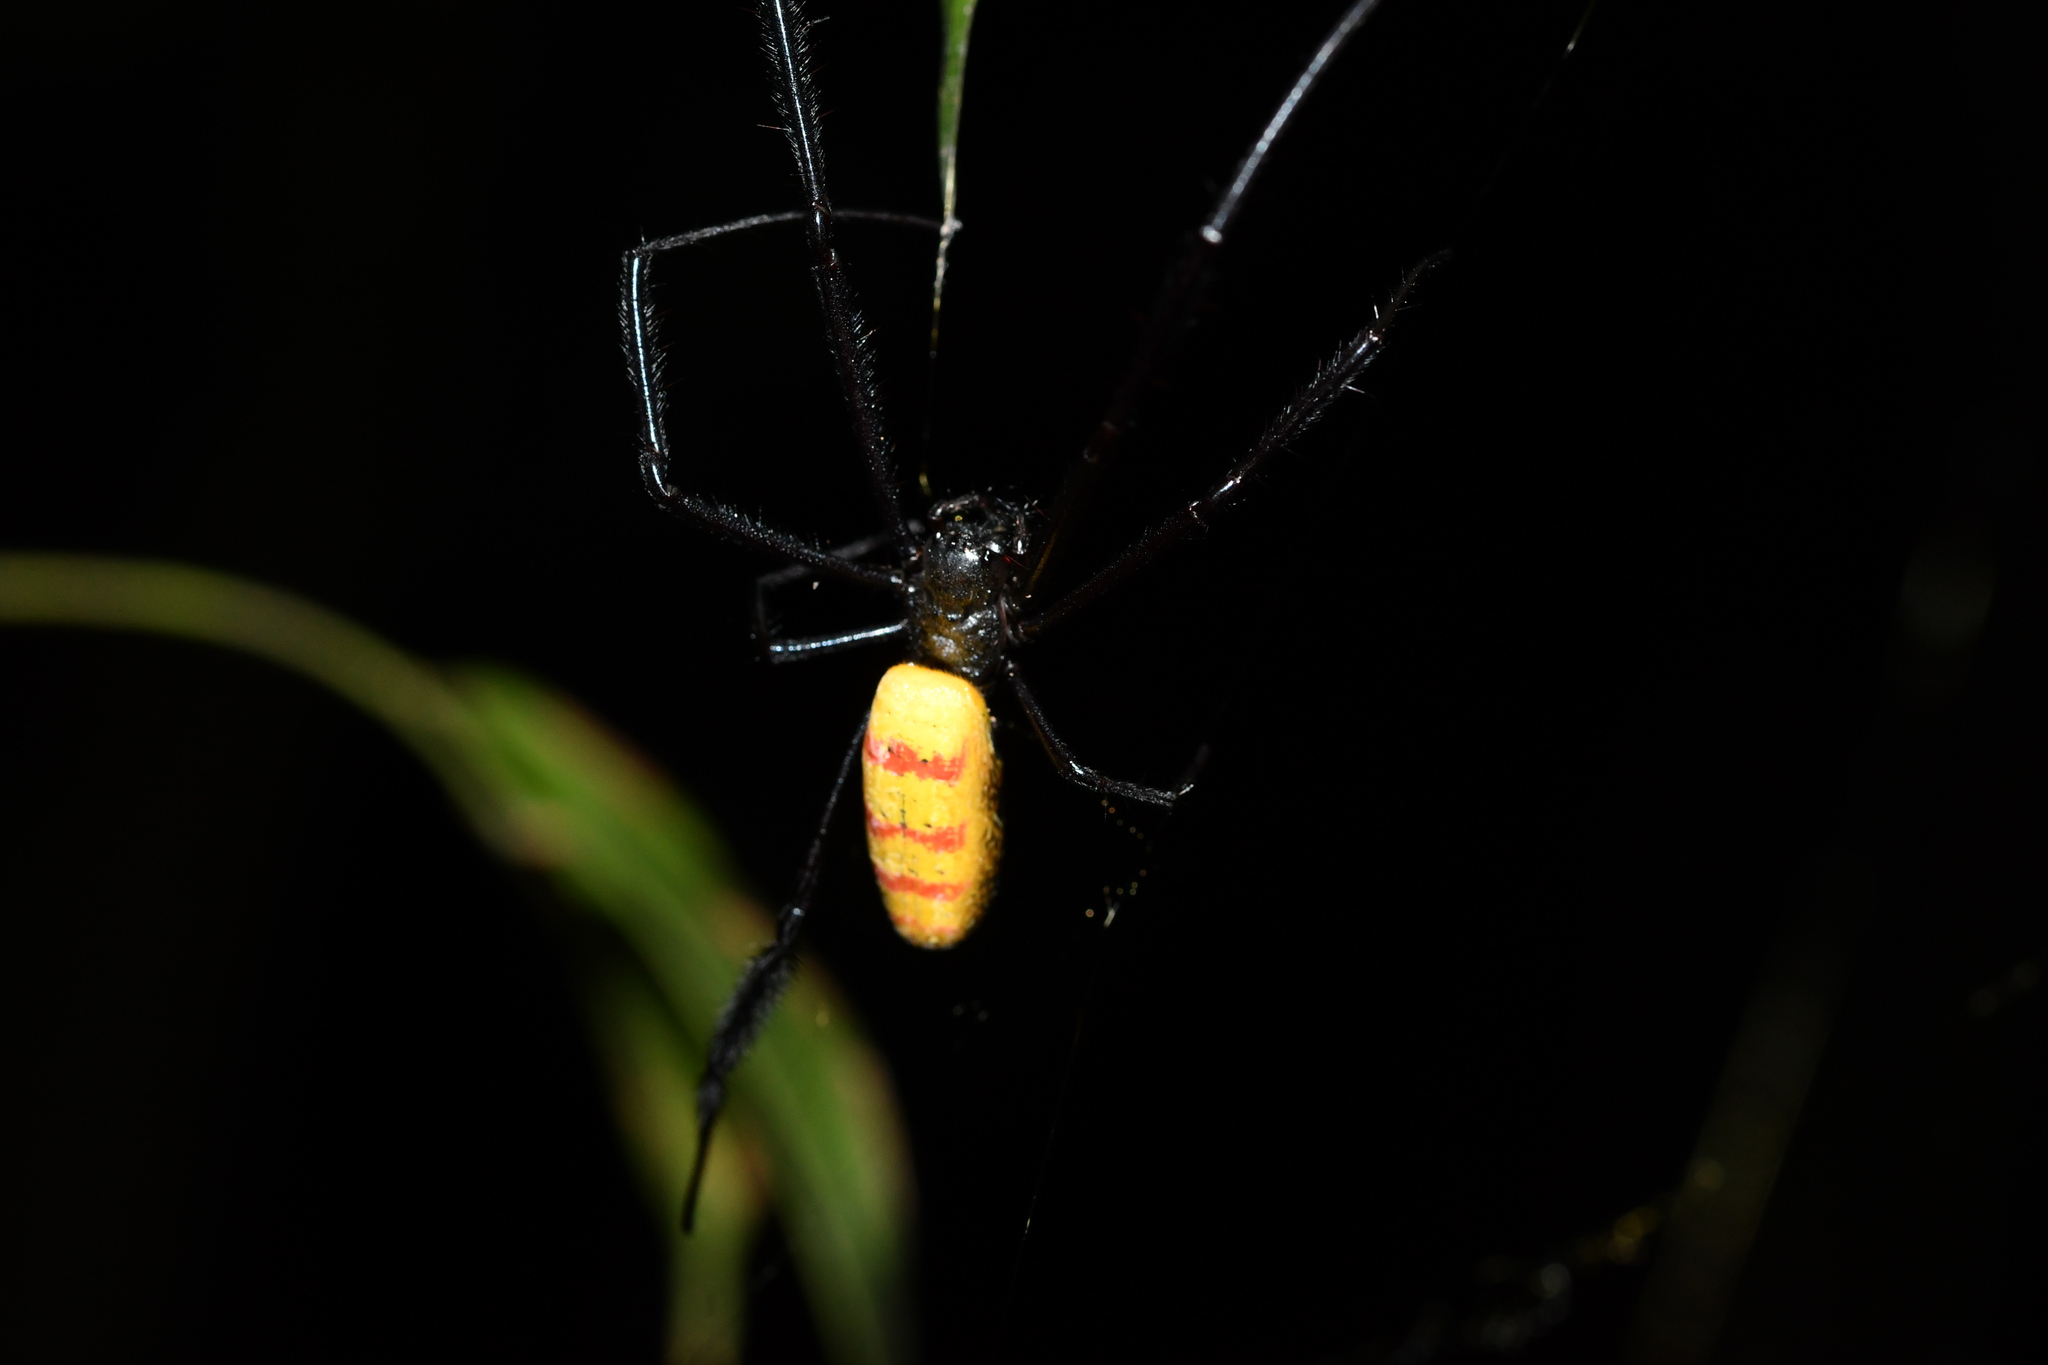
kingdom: Animalia
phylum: Arthropoda
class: Arachnida
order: Araneae
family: Araneidae
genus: Trichonephila
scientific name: Trichonephila fenestrata
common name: Hairy golden orb weaver
